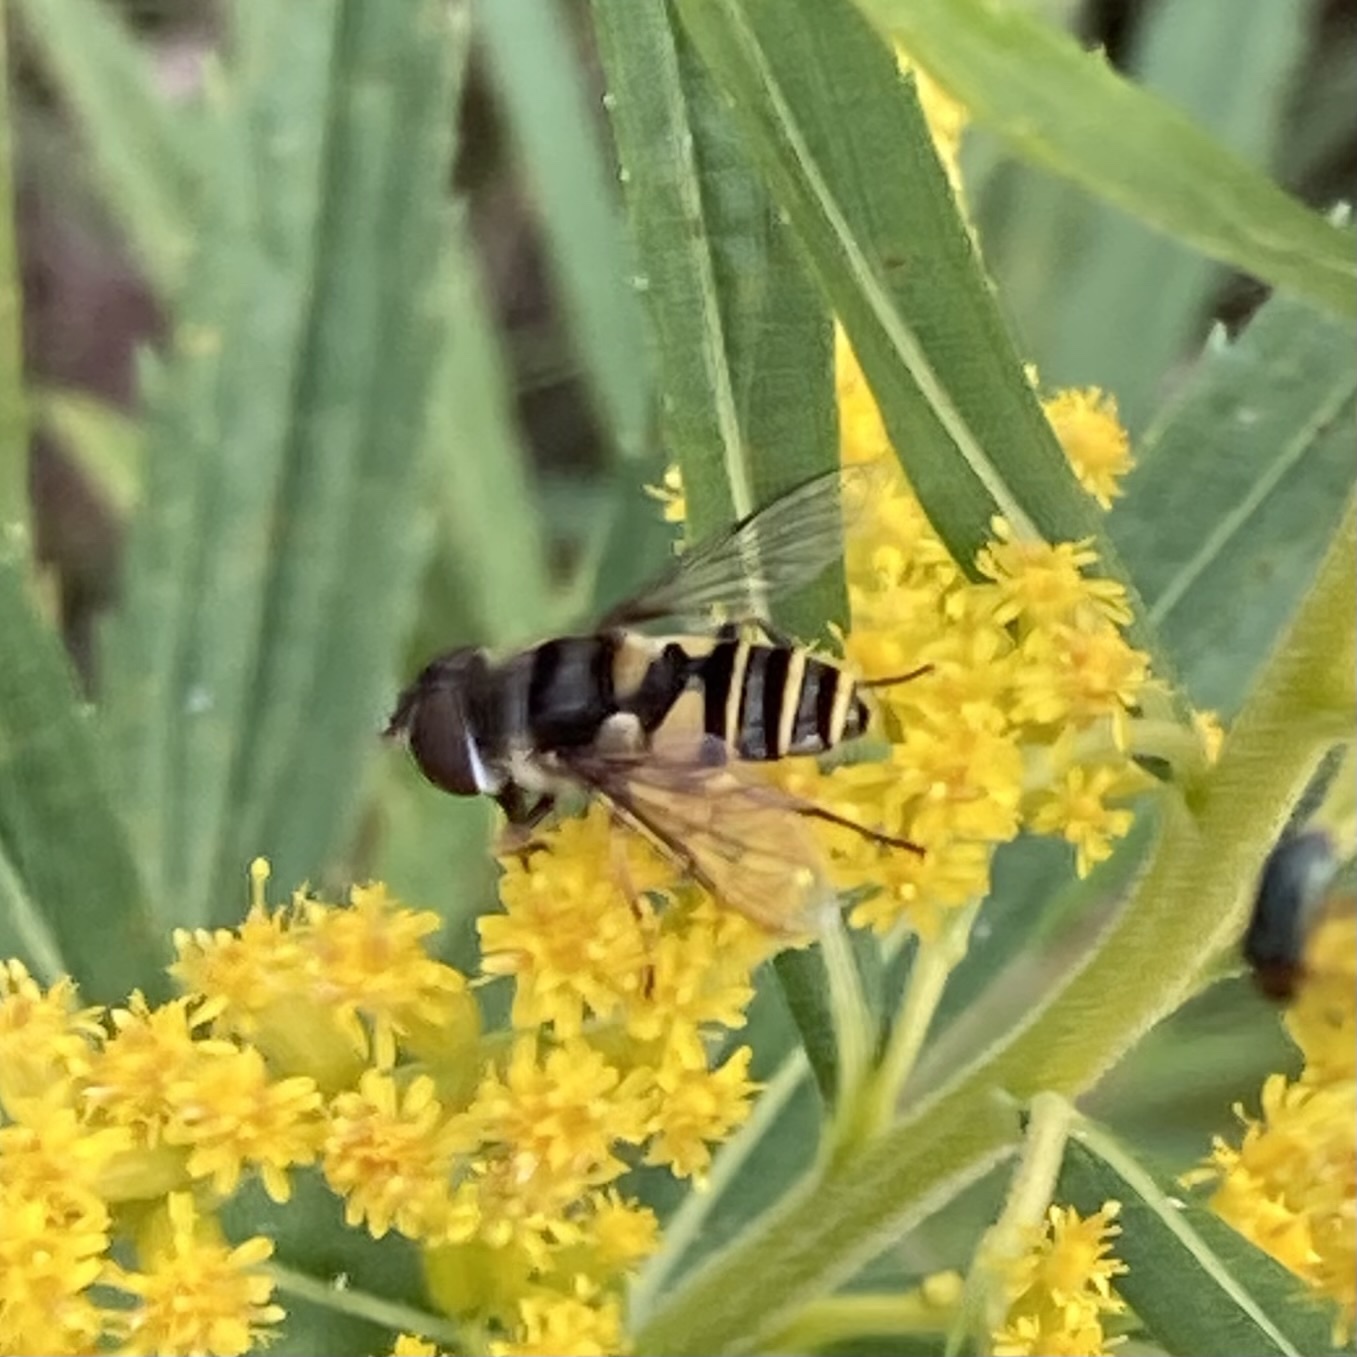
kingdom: Animalia
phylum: Arthropoda
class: Insecta
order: Diptera
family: Syrphidae
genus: Eristalis
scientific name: Eristalis transversa
